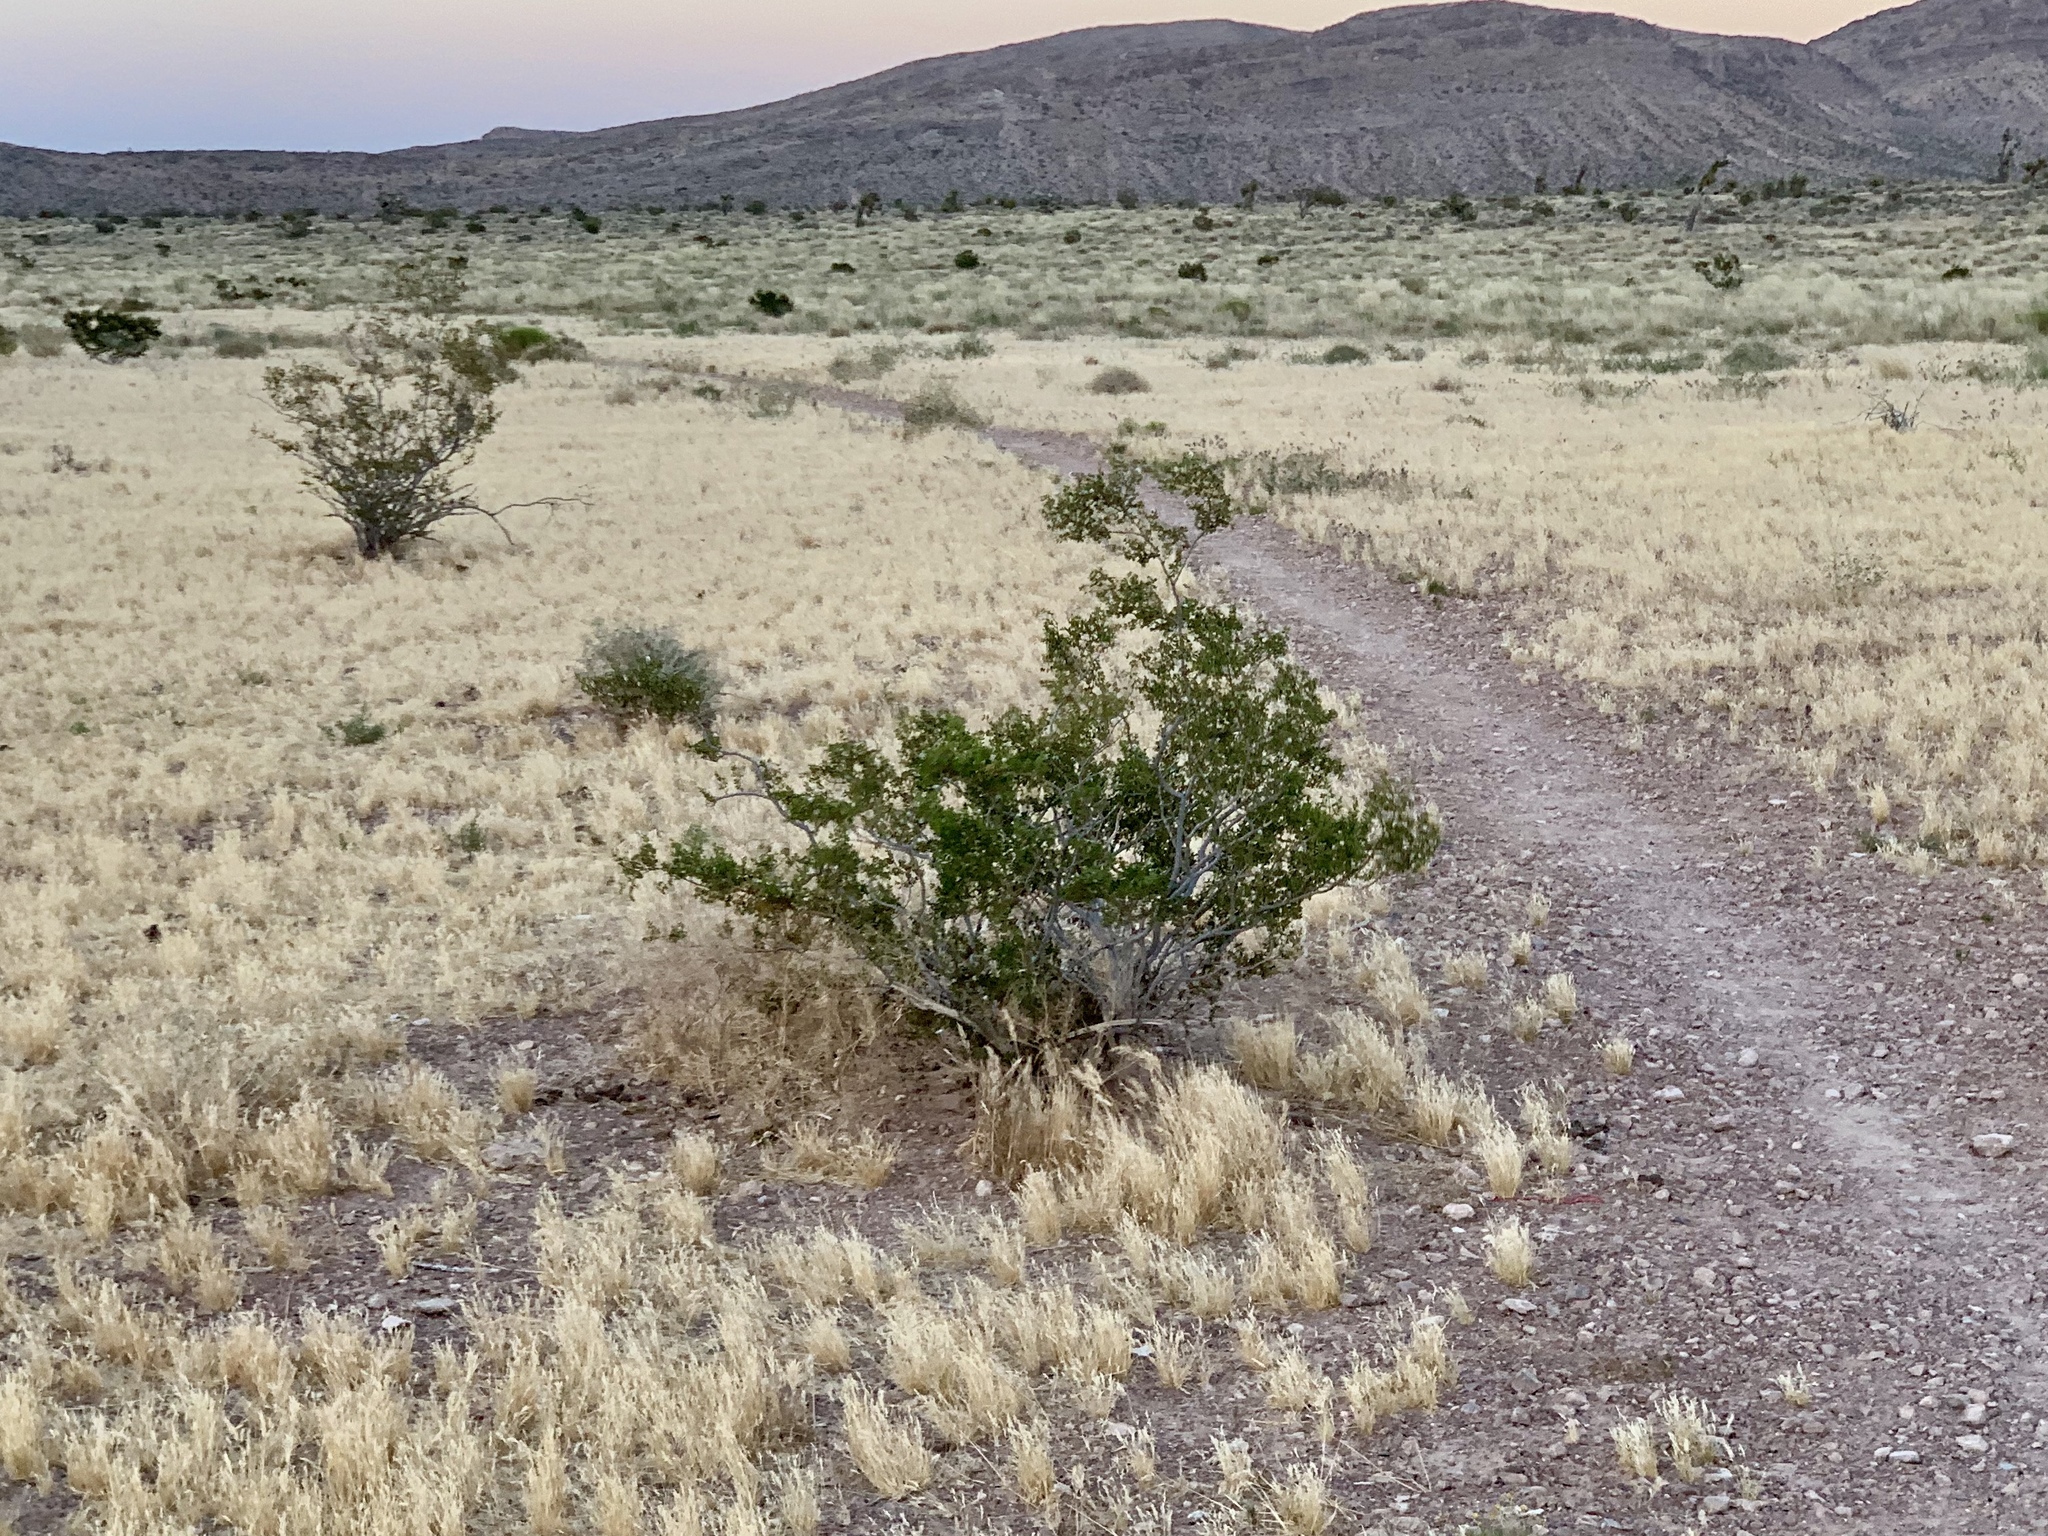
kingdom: Plantae
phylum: Tracheophyta
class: Magnoliopsida
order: Zygophyllales
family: Zygophyllaceae
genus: Larrea
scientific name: Larrea tridentata
